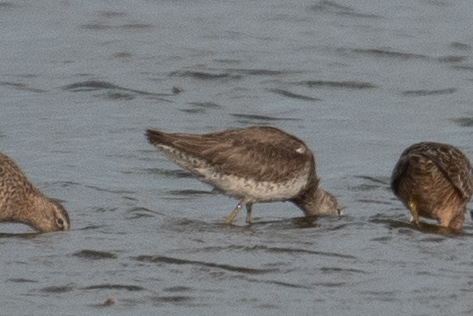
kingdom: Animalia
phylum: Chordata
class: Aves
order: Charadriiformes
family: Scolopacidae
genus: Limnodromus
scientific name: Limnodromus scolopaceus
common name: Long-billed dowitcher
